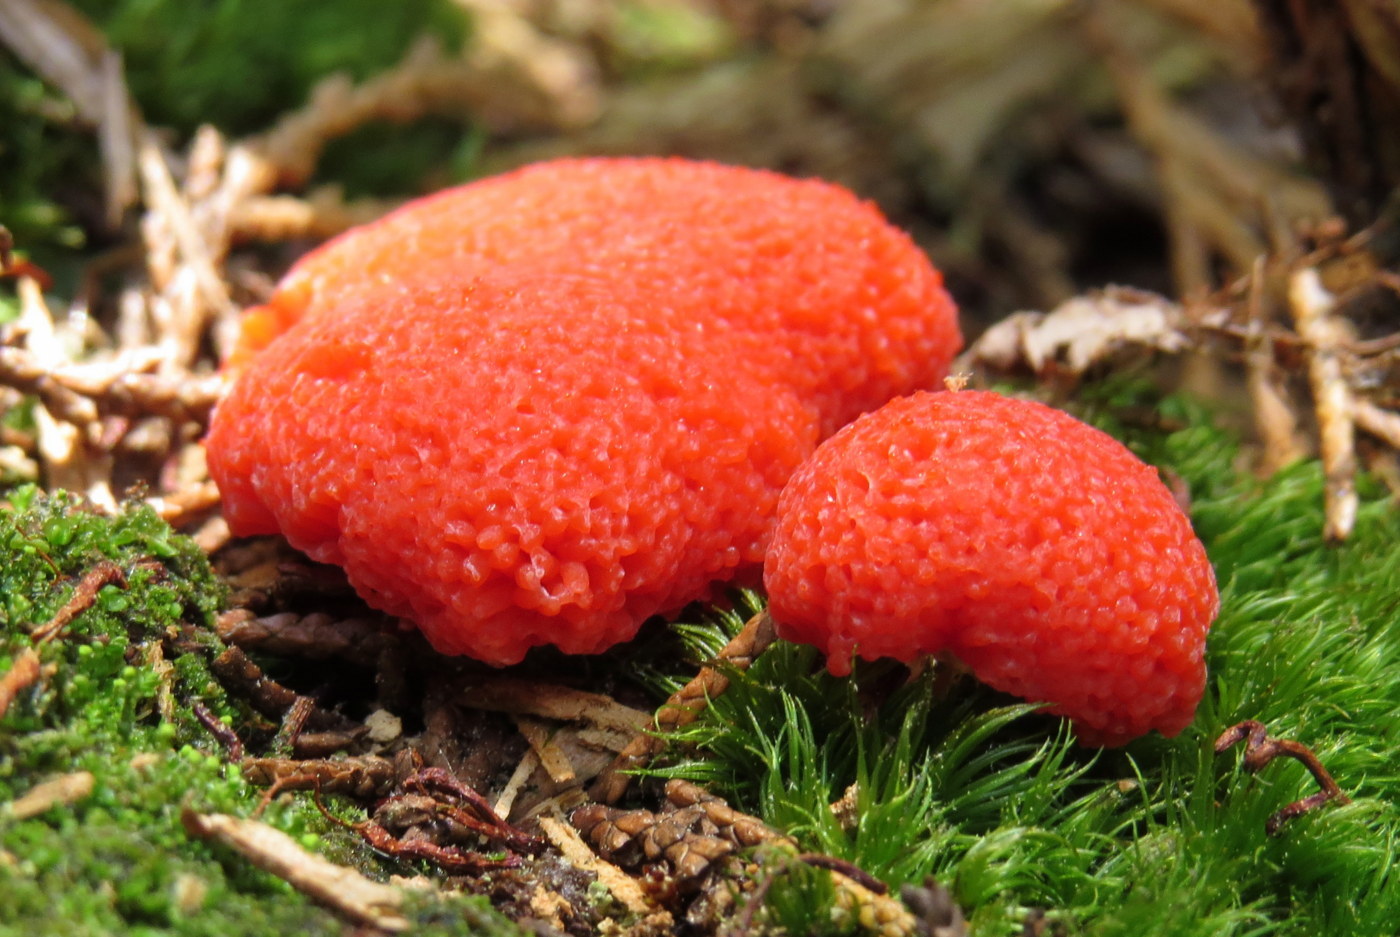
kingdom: Protozoa
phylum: Mycetozoa
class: Myxomycetes
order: Cribrariales
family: Tubiferaceae
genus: Tubifera
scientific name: Tubifera ferruginosa
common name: Red raspberry slime mold
